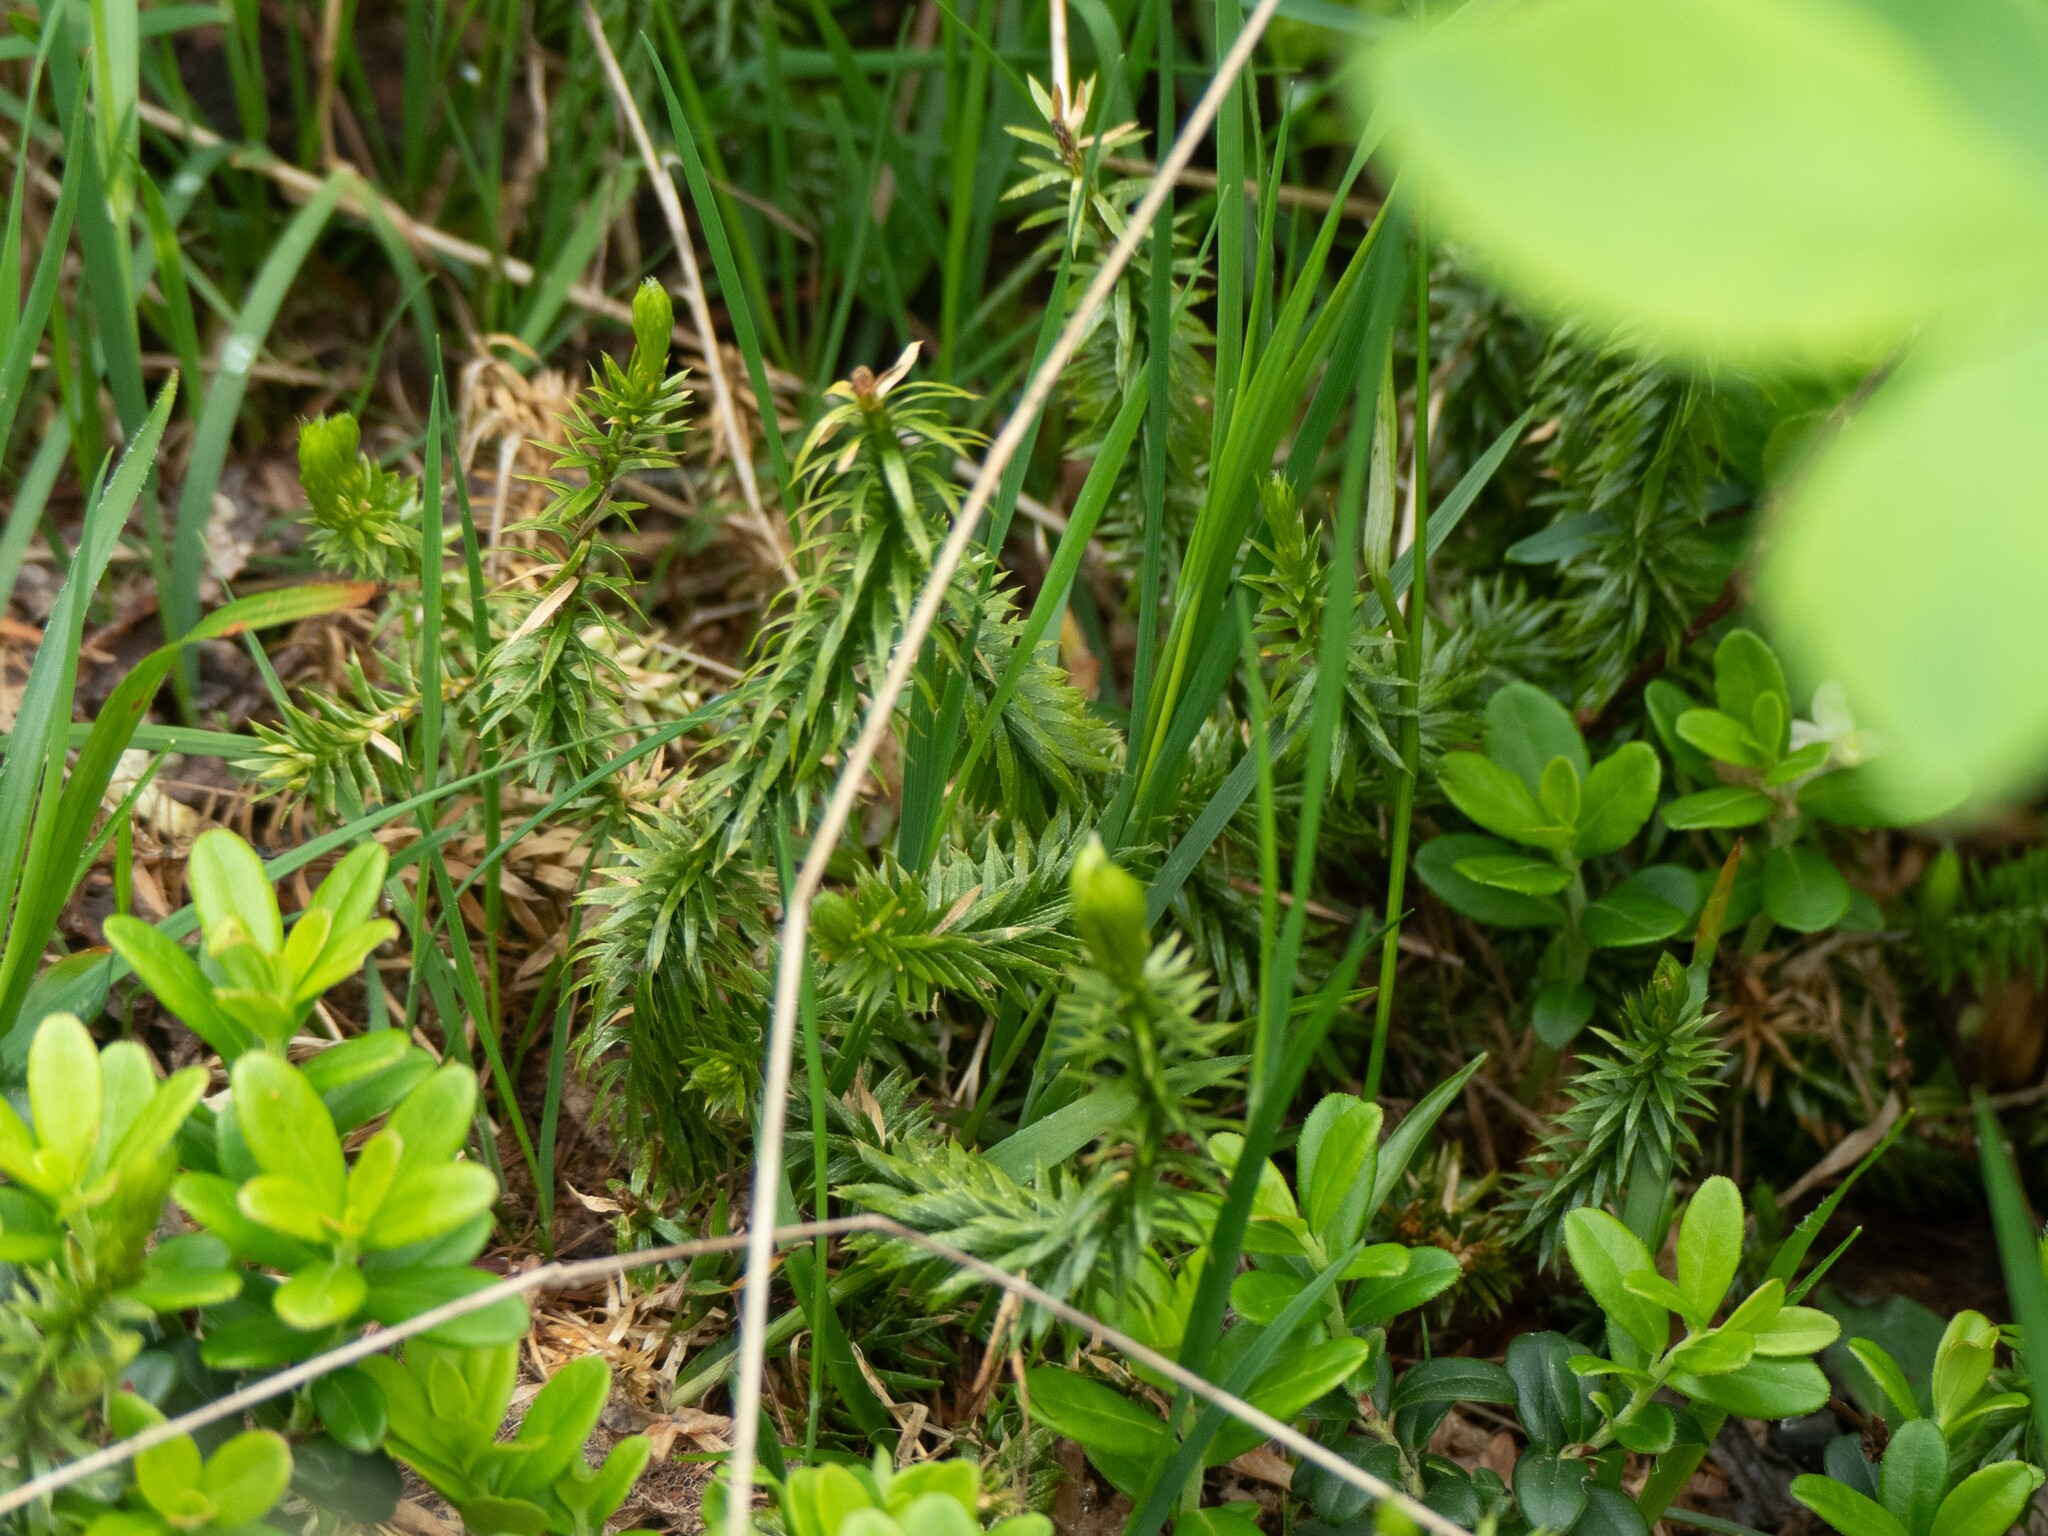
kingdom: Plantae
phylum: Tracheophyta
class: Lycopodiopsida
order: Lycopodiales
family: Lycopodiaceae
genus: Spinulum
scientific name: Spinulum annotinum
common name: Interrupted club-moss
